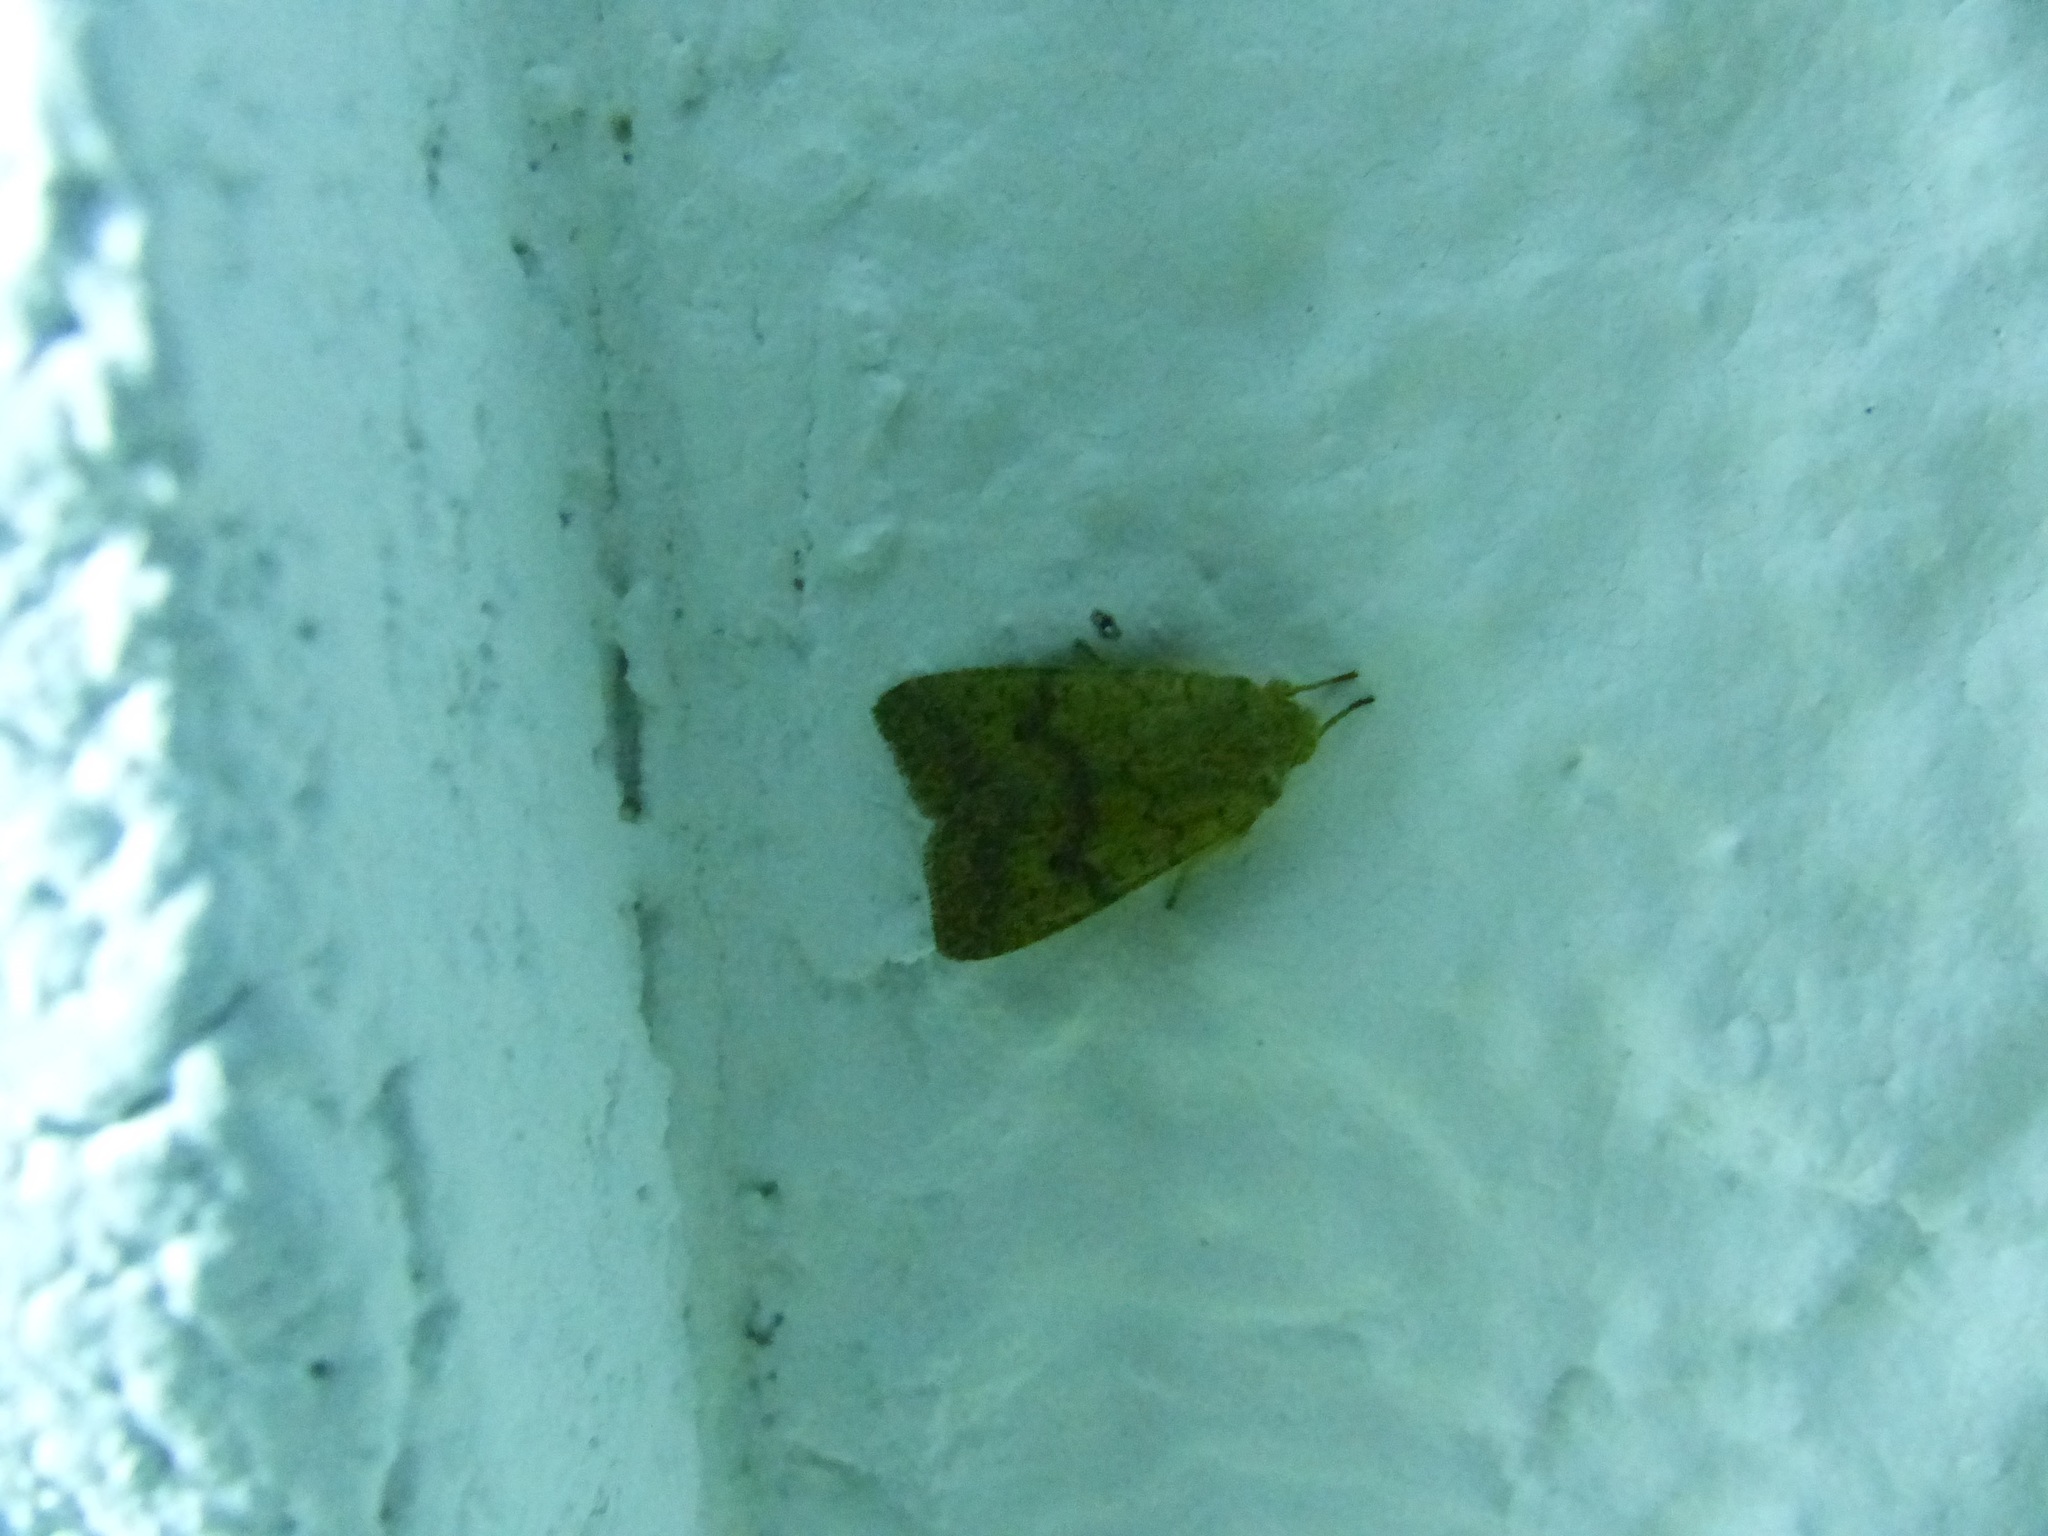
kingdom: Animalia
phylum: Arthropoda
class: Insecta
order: Lepidoptera
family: Noctuidae
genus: Agrochola
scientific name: Agrochola bicolorago
